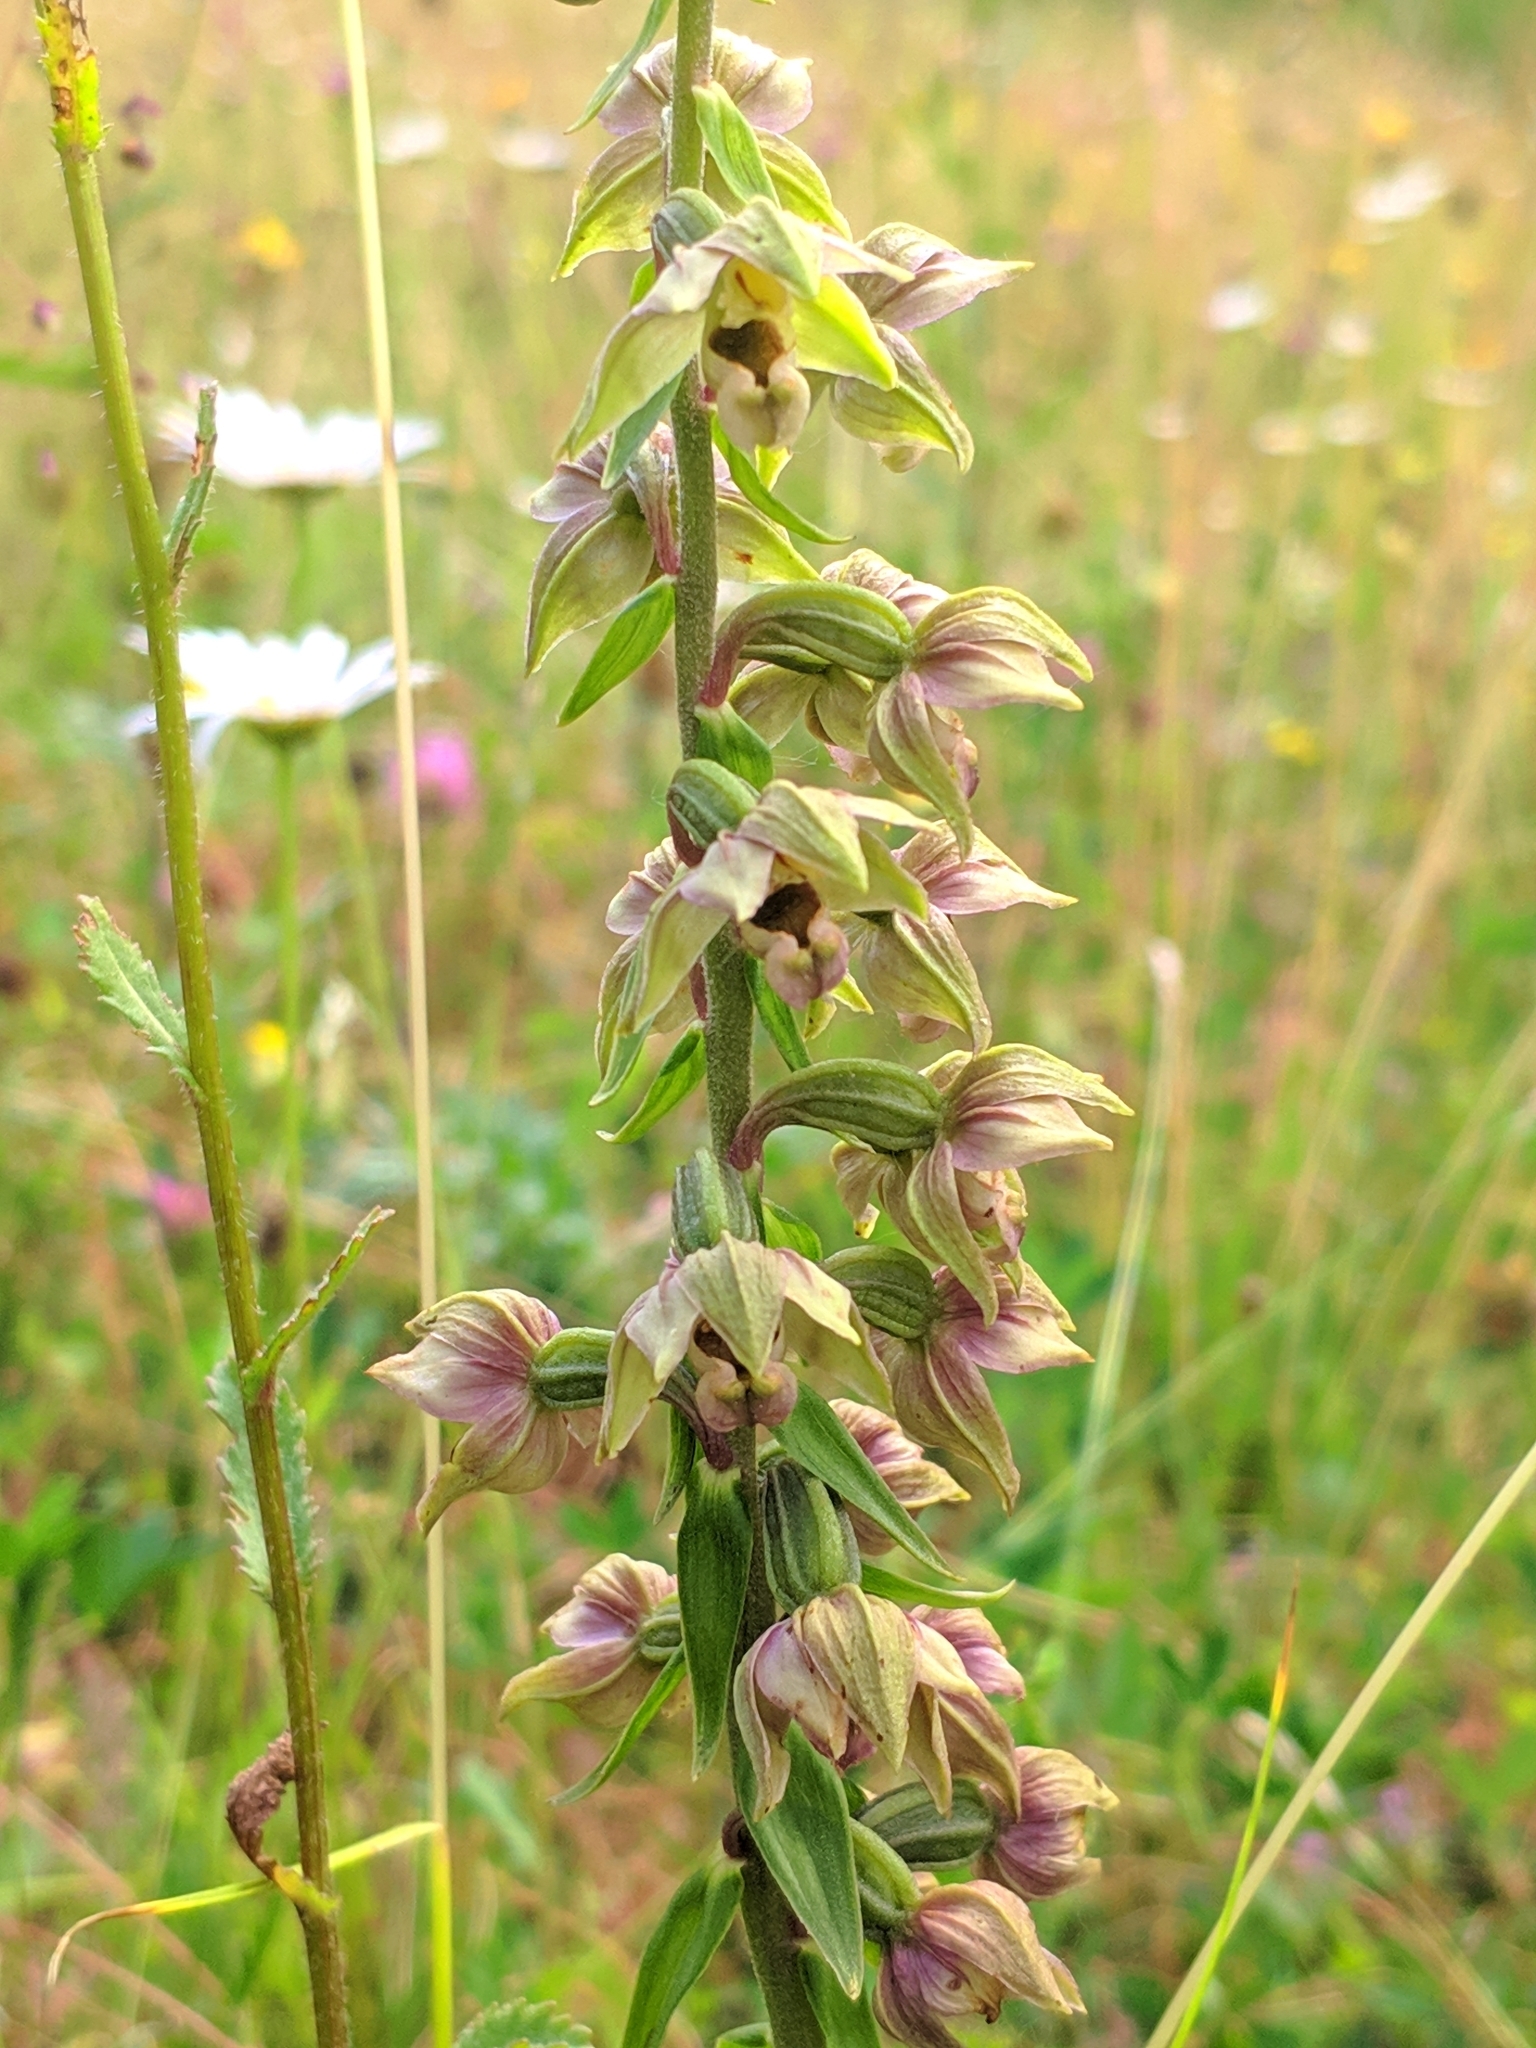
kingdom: Plantae
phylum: Tracheophyta
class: Liliopsida
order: Asparagales
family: Orchidaceae
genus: Epipactis
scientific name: Epipactis helleborine
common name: Broad-leaved helleborine
